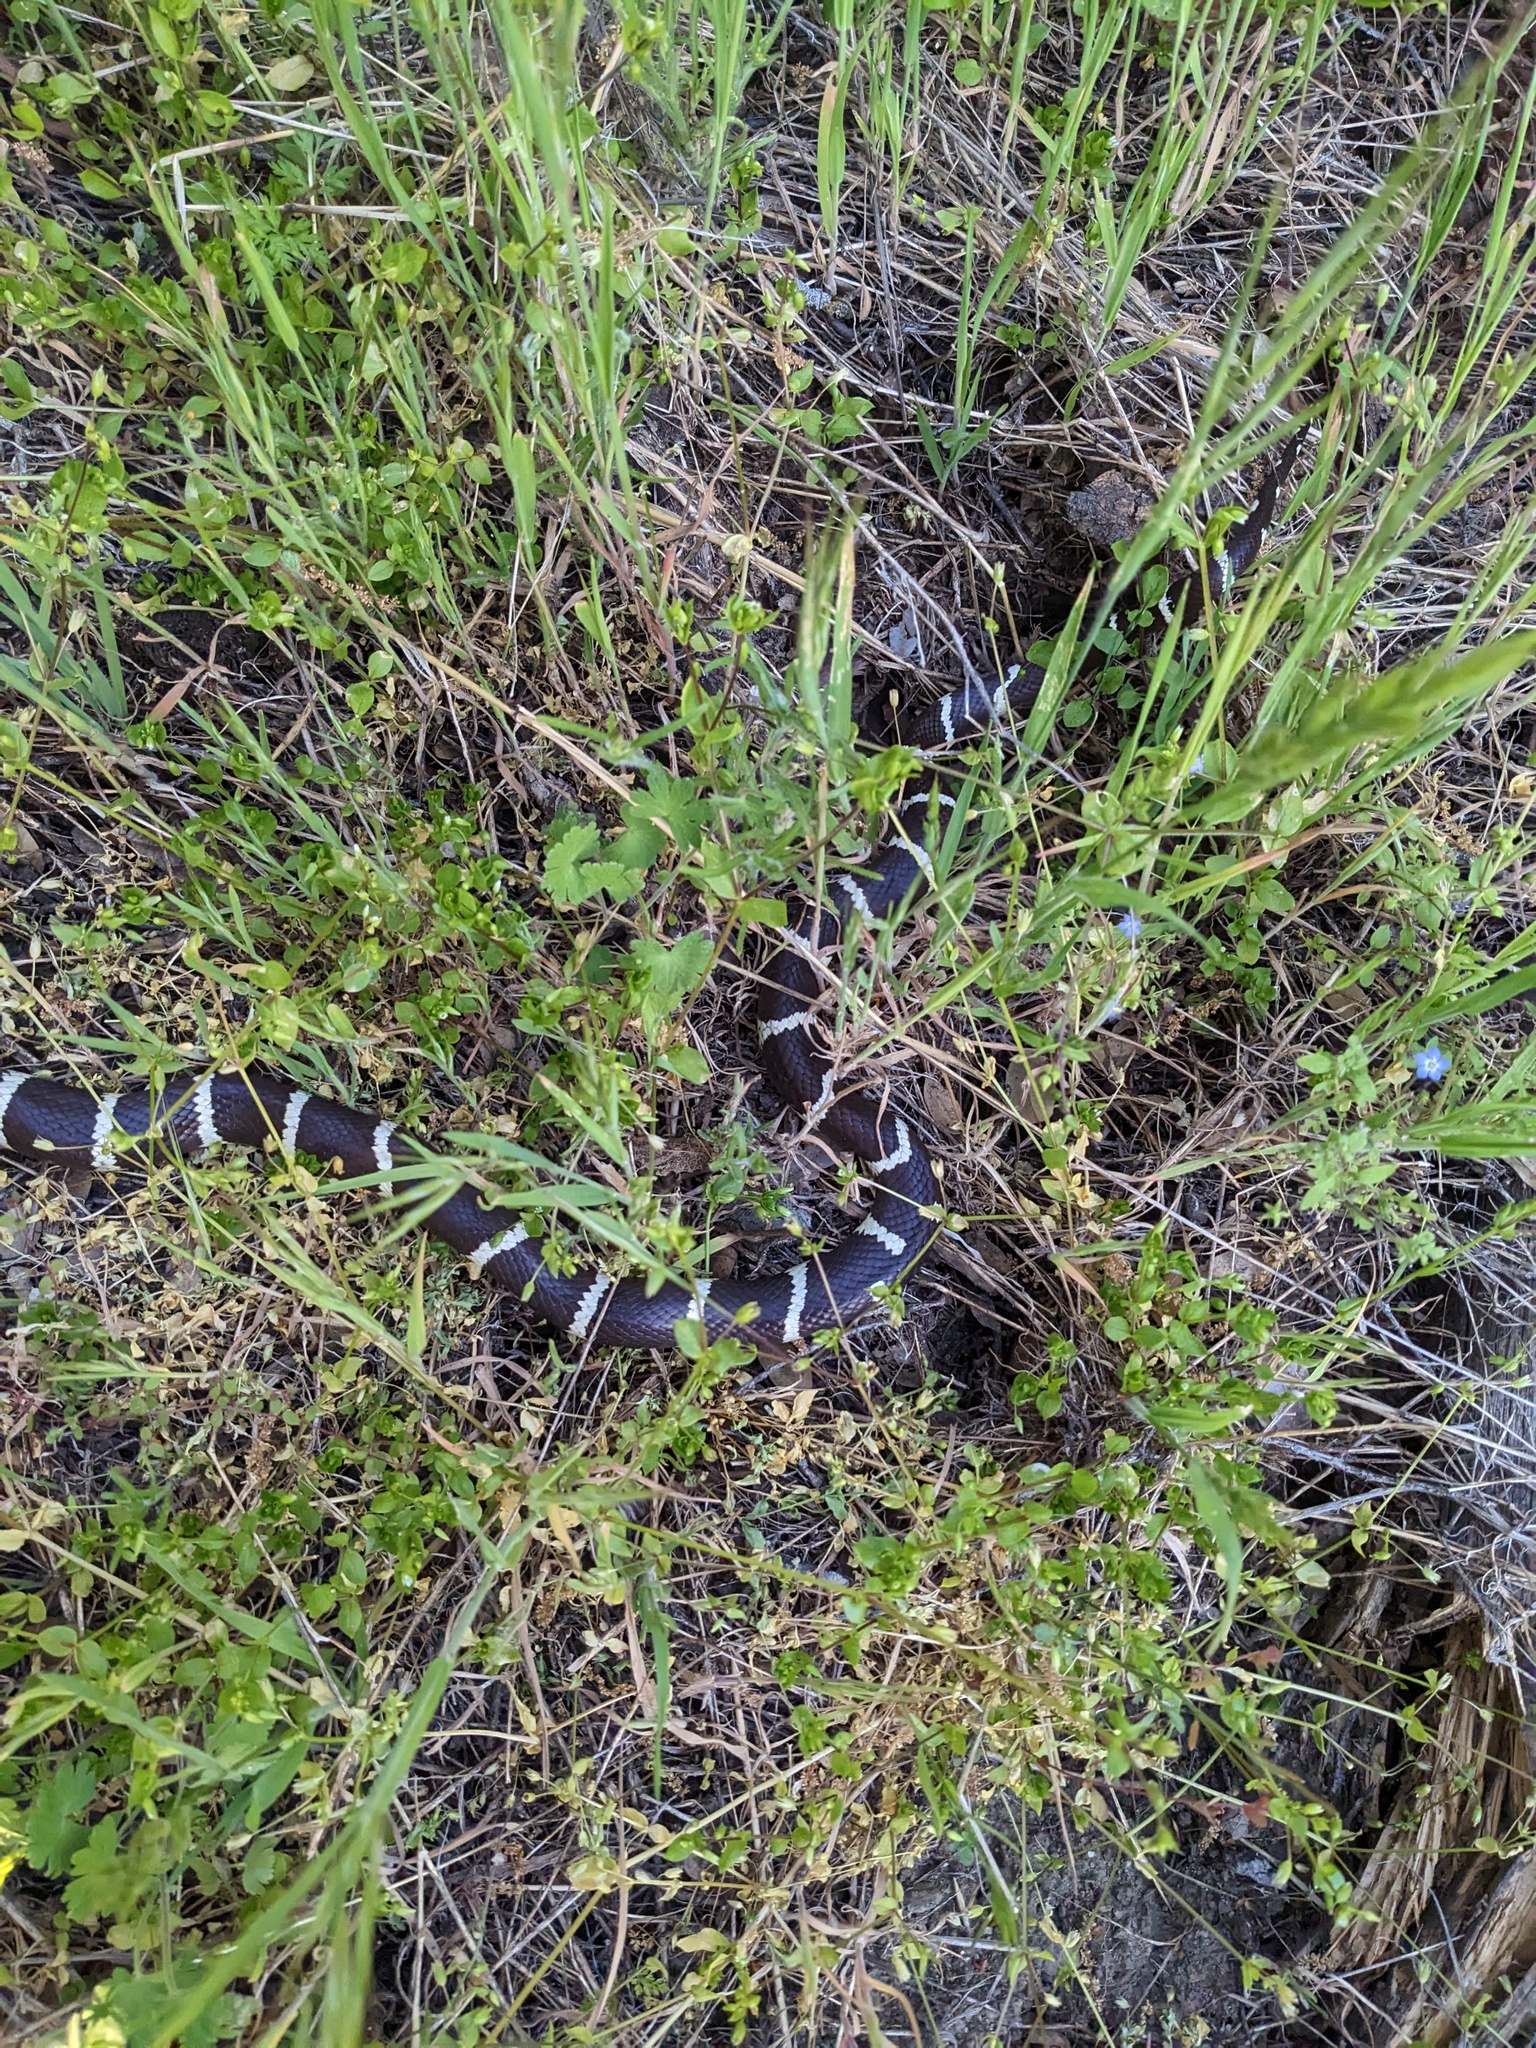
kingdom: Animalia
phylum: Chordata
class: Squamata
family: Colubridae
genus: Lampropeltis
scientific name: Lampropeltis californiae
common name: California kingsnake
